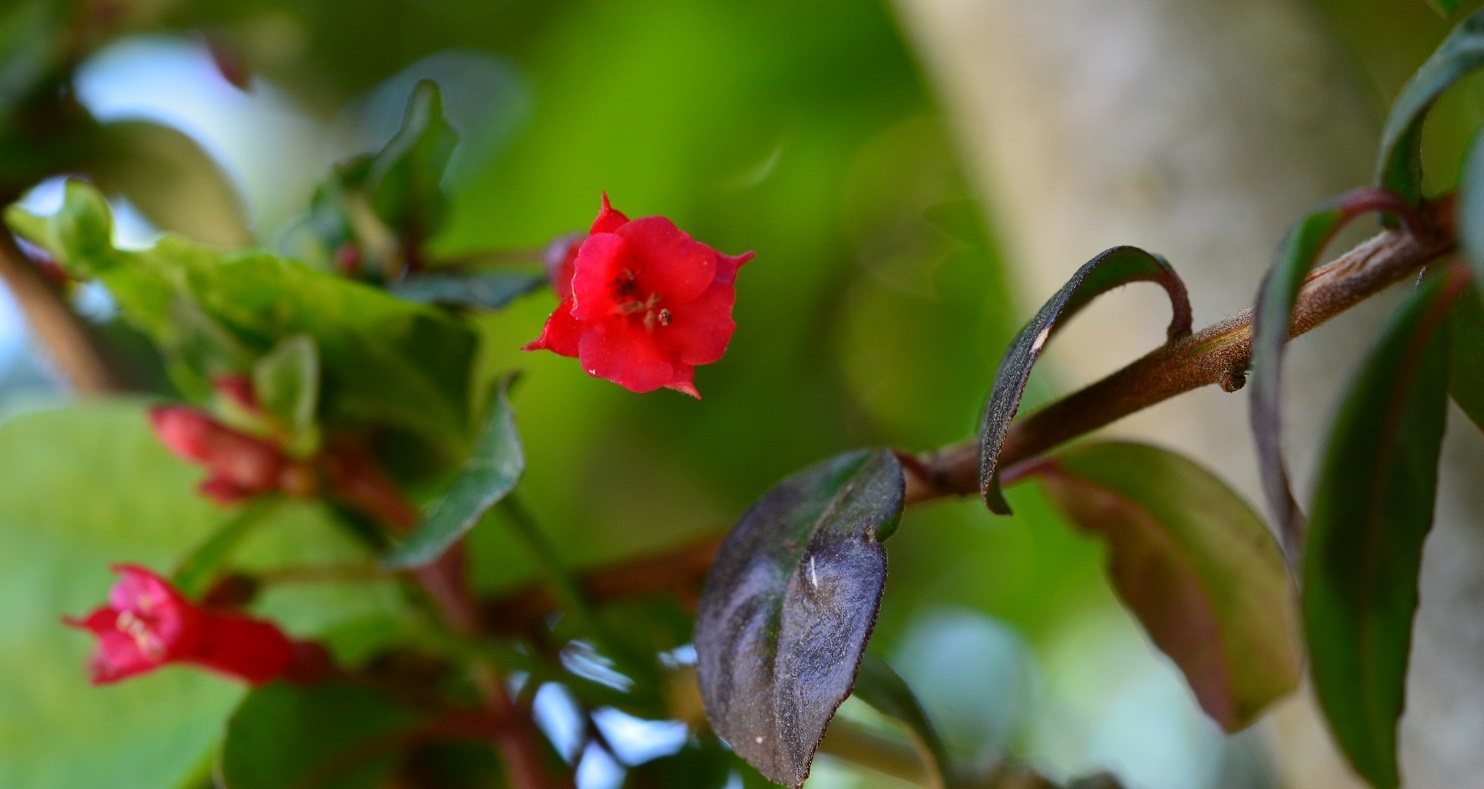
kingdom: Plantae
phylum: Tracheophyta
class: Magnoliopsida
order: Myrtales
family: Onagraceae
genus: Fuchsia
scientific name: Fuchsia thymifolia
